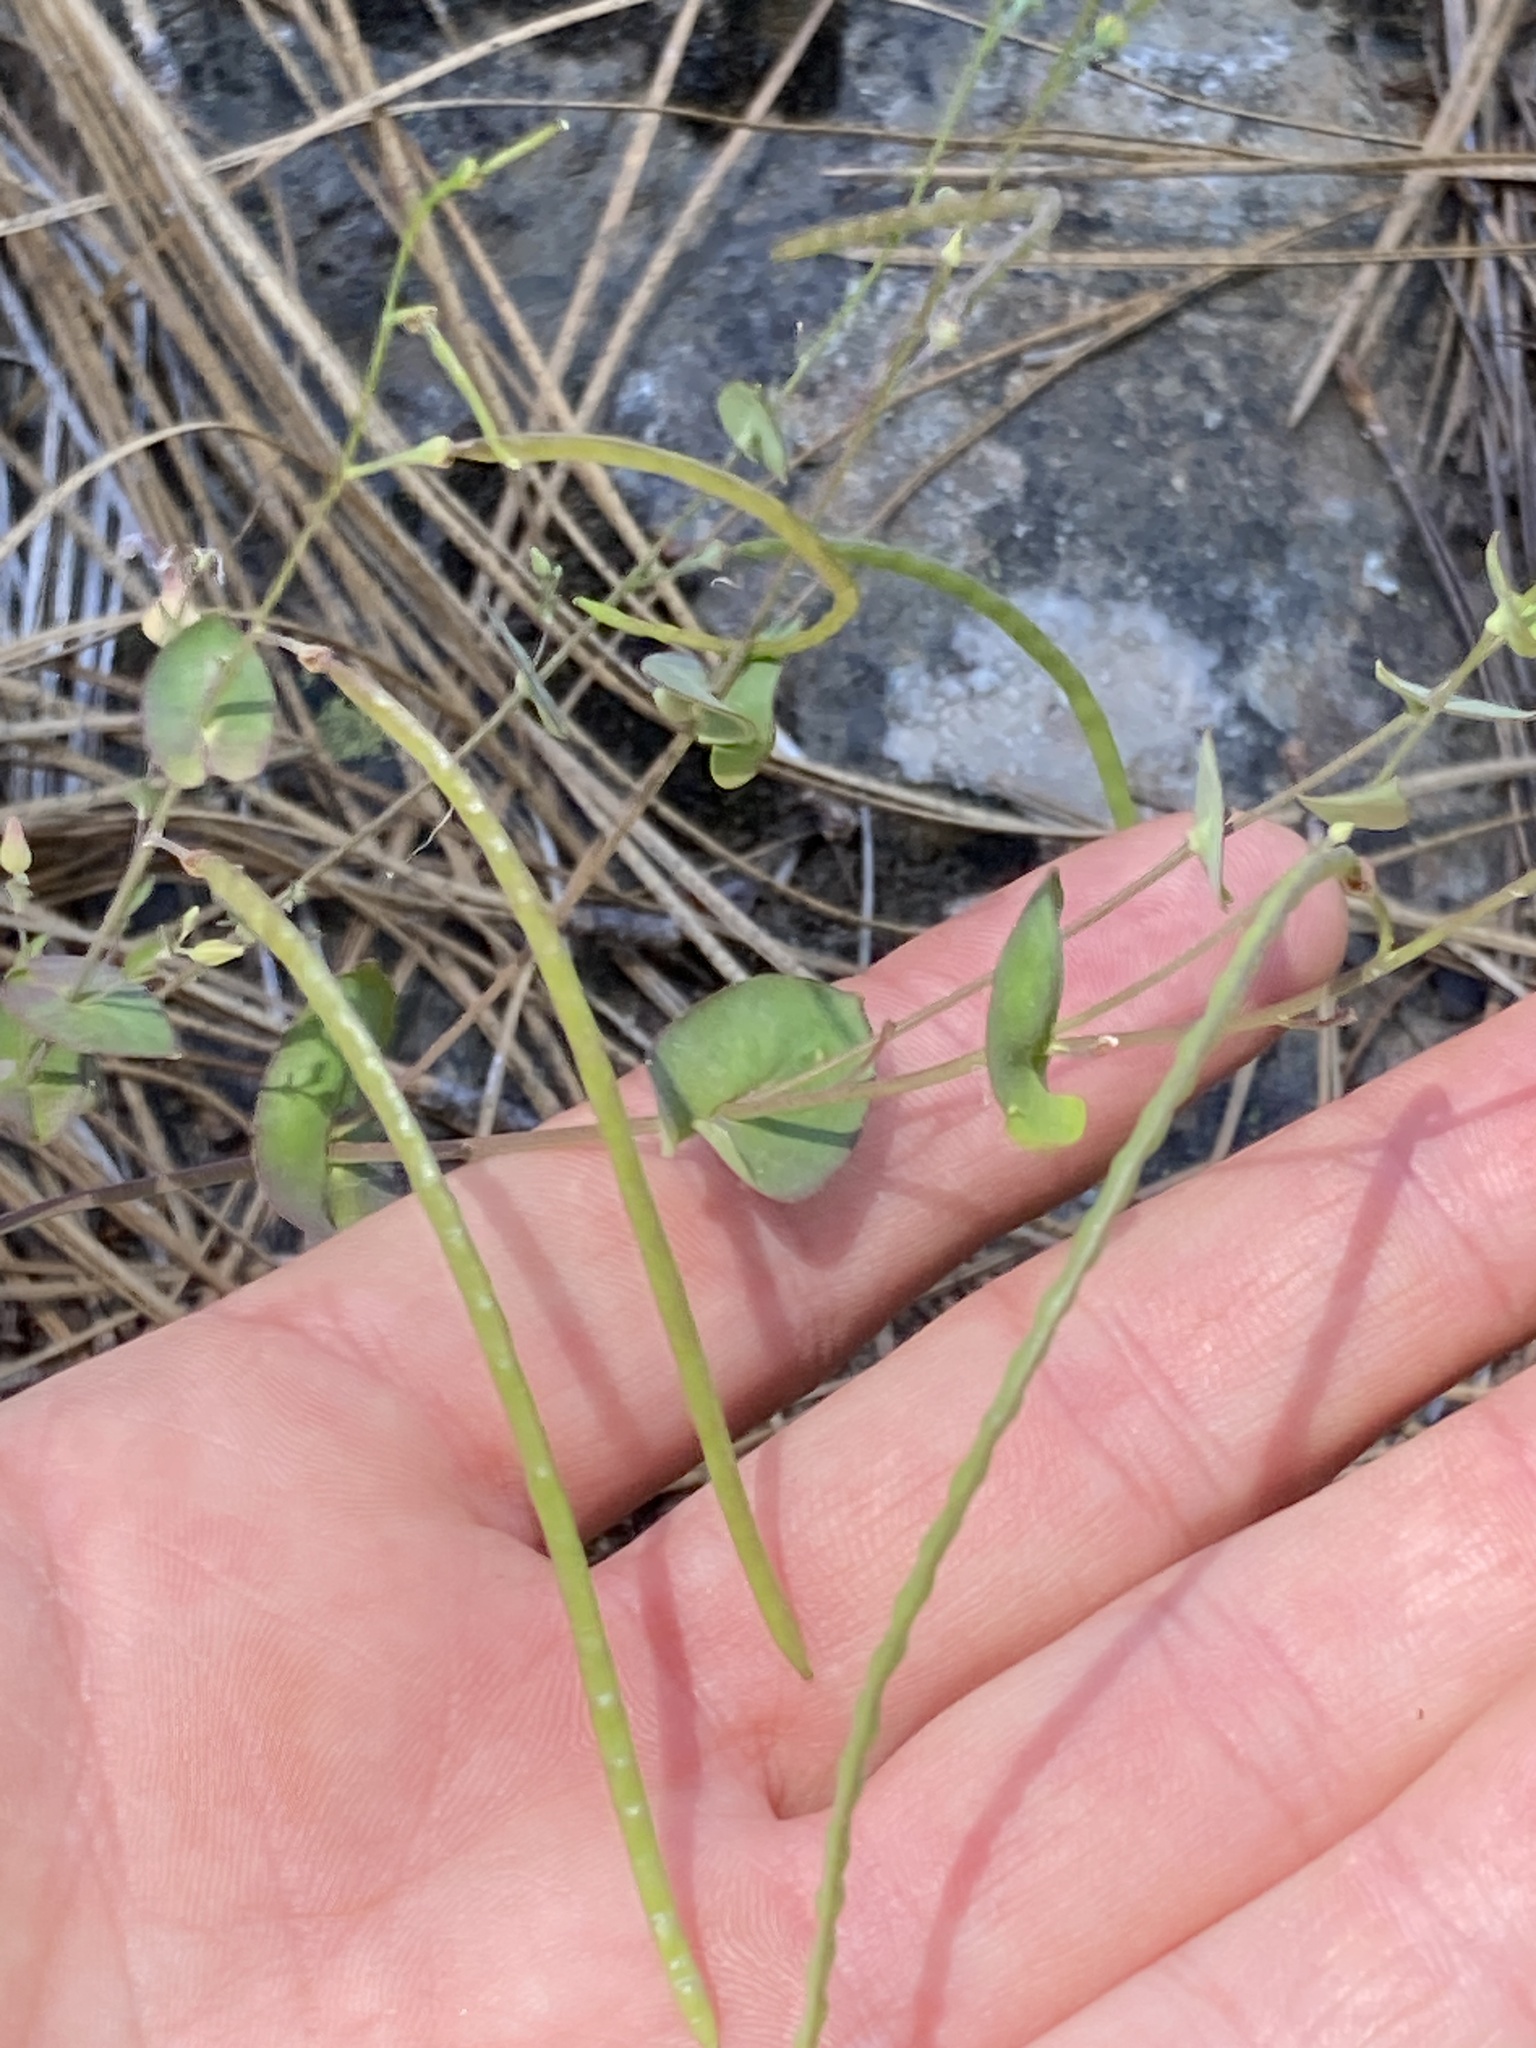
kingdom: Plantae
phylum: Tracheophyta
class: Magnoliopsida
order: Brassicales
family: Brassicaceae
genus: Streptanthus
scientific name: Streptanthus tortuosus
